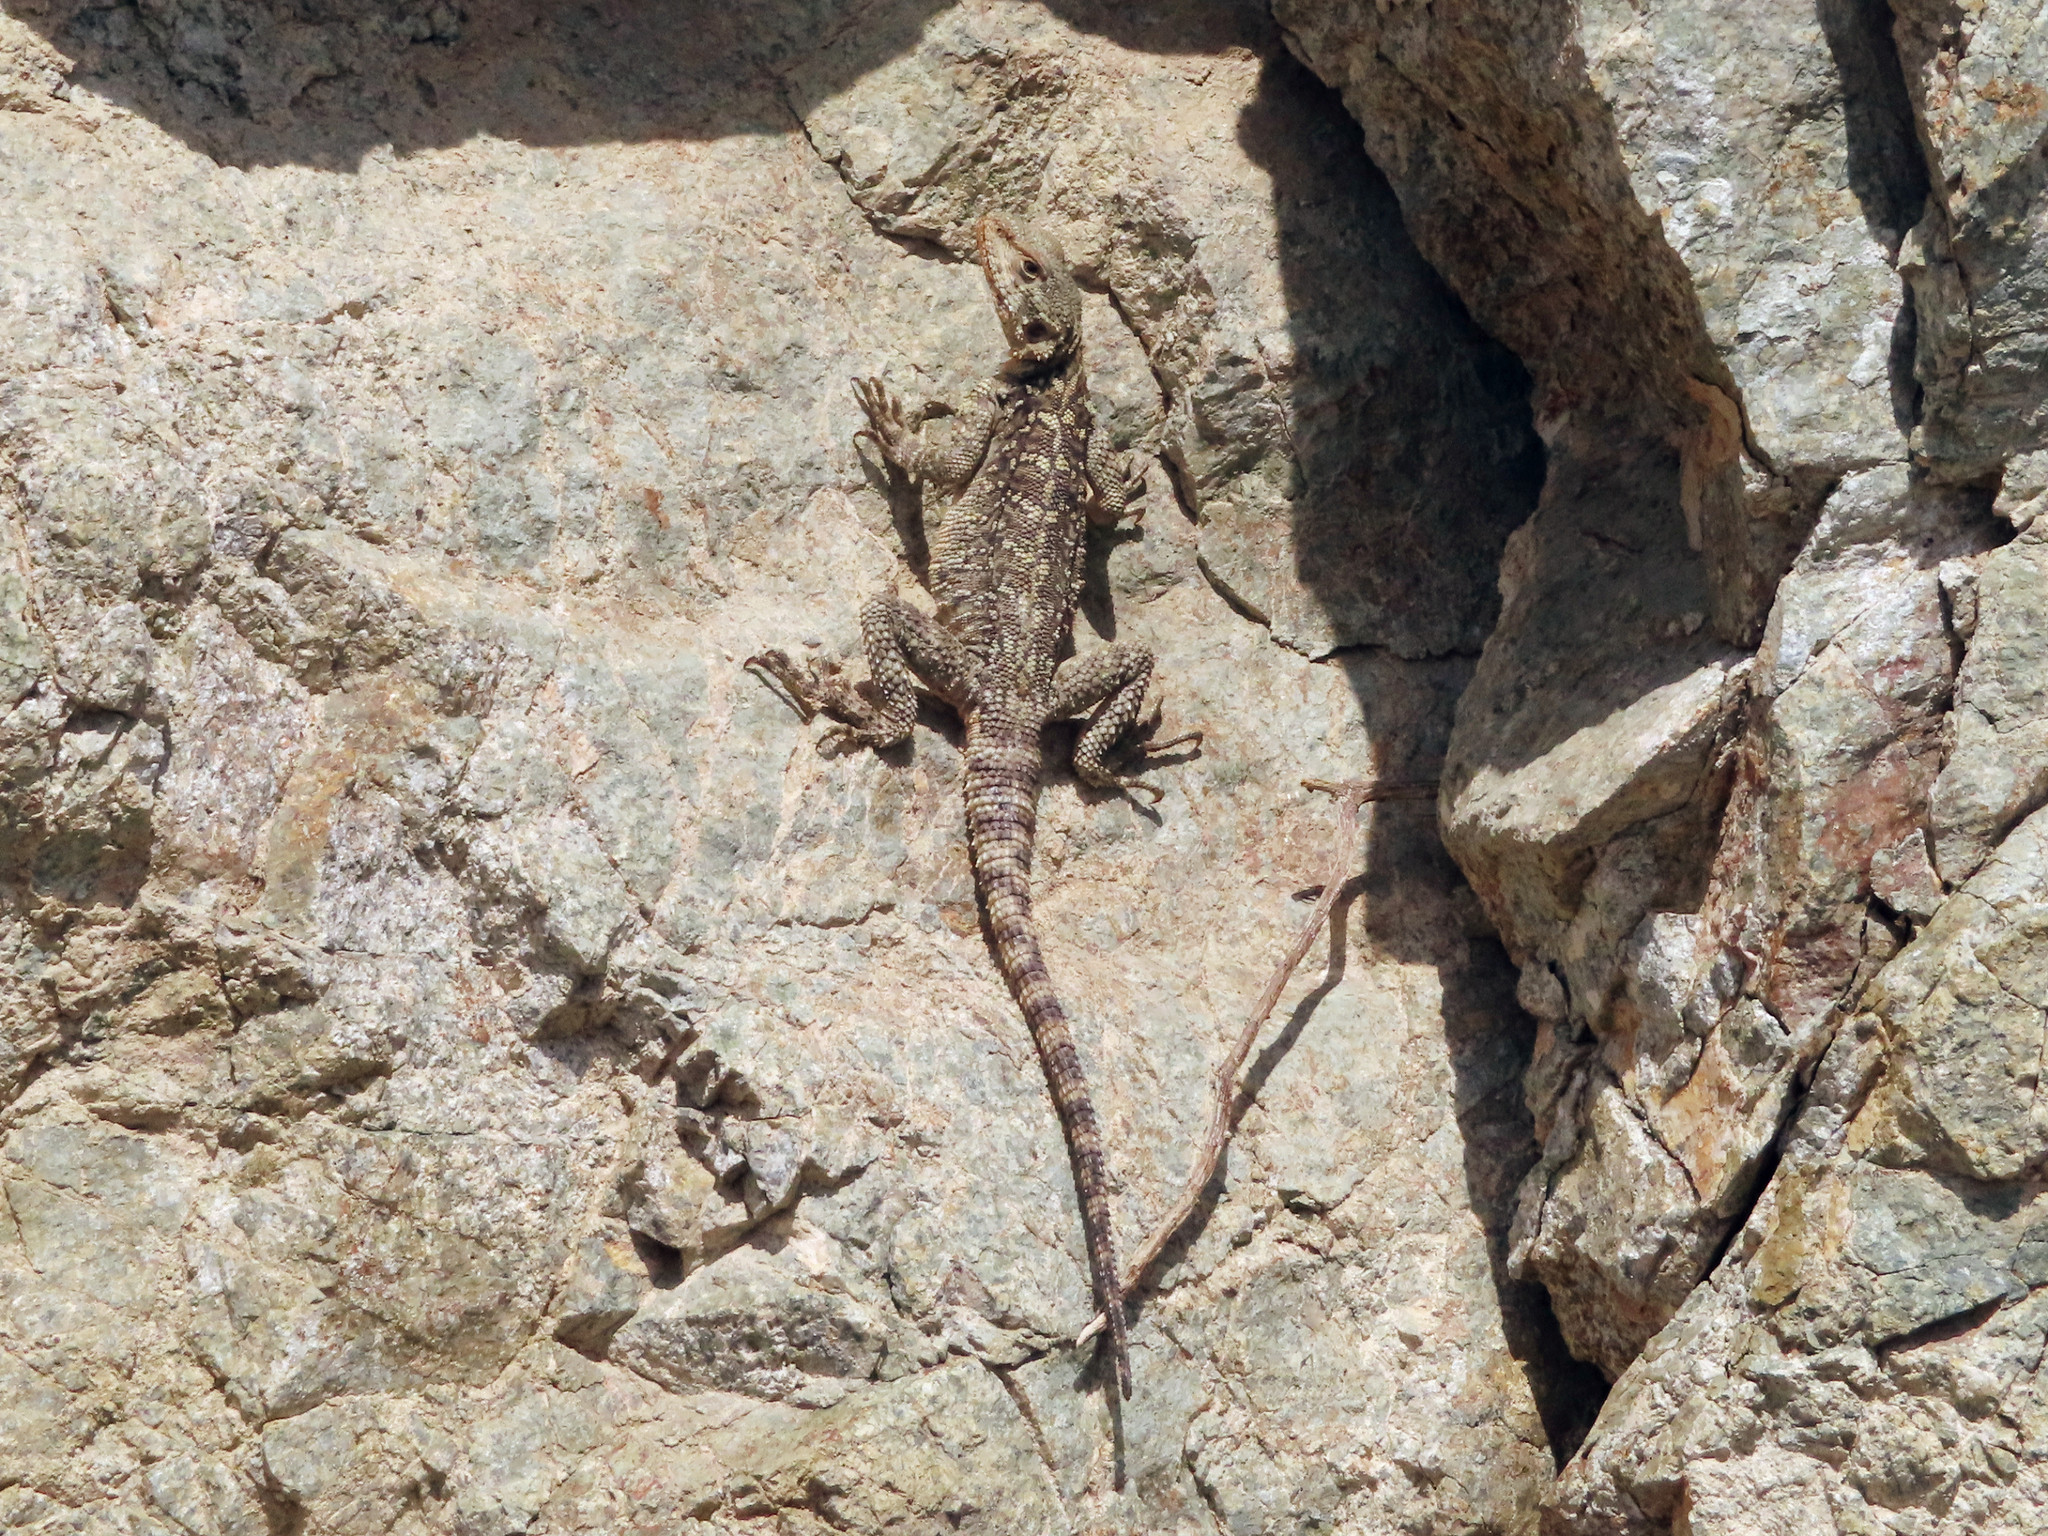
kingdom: Animalia
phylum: Chordata
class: Squamata
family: Agamidae
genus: Paralaudakia
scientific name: Paralaudakia caucasia
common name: Caucasian agama
